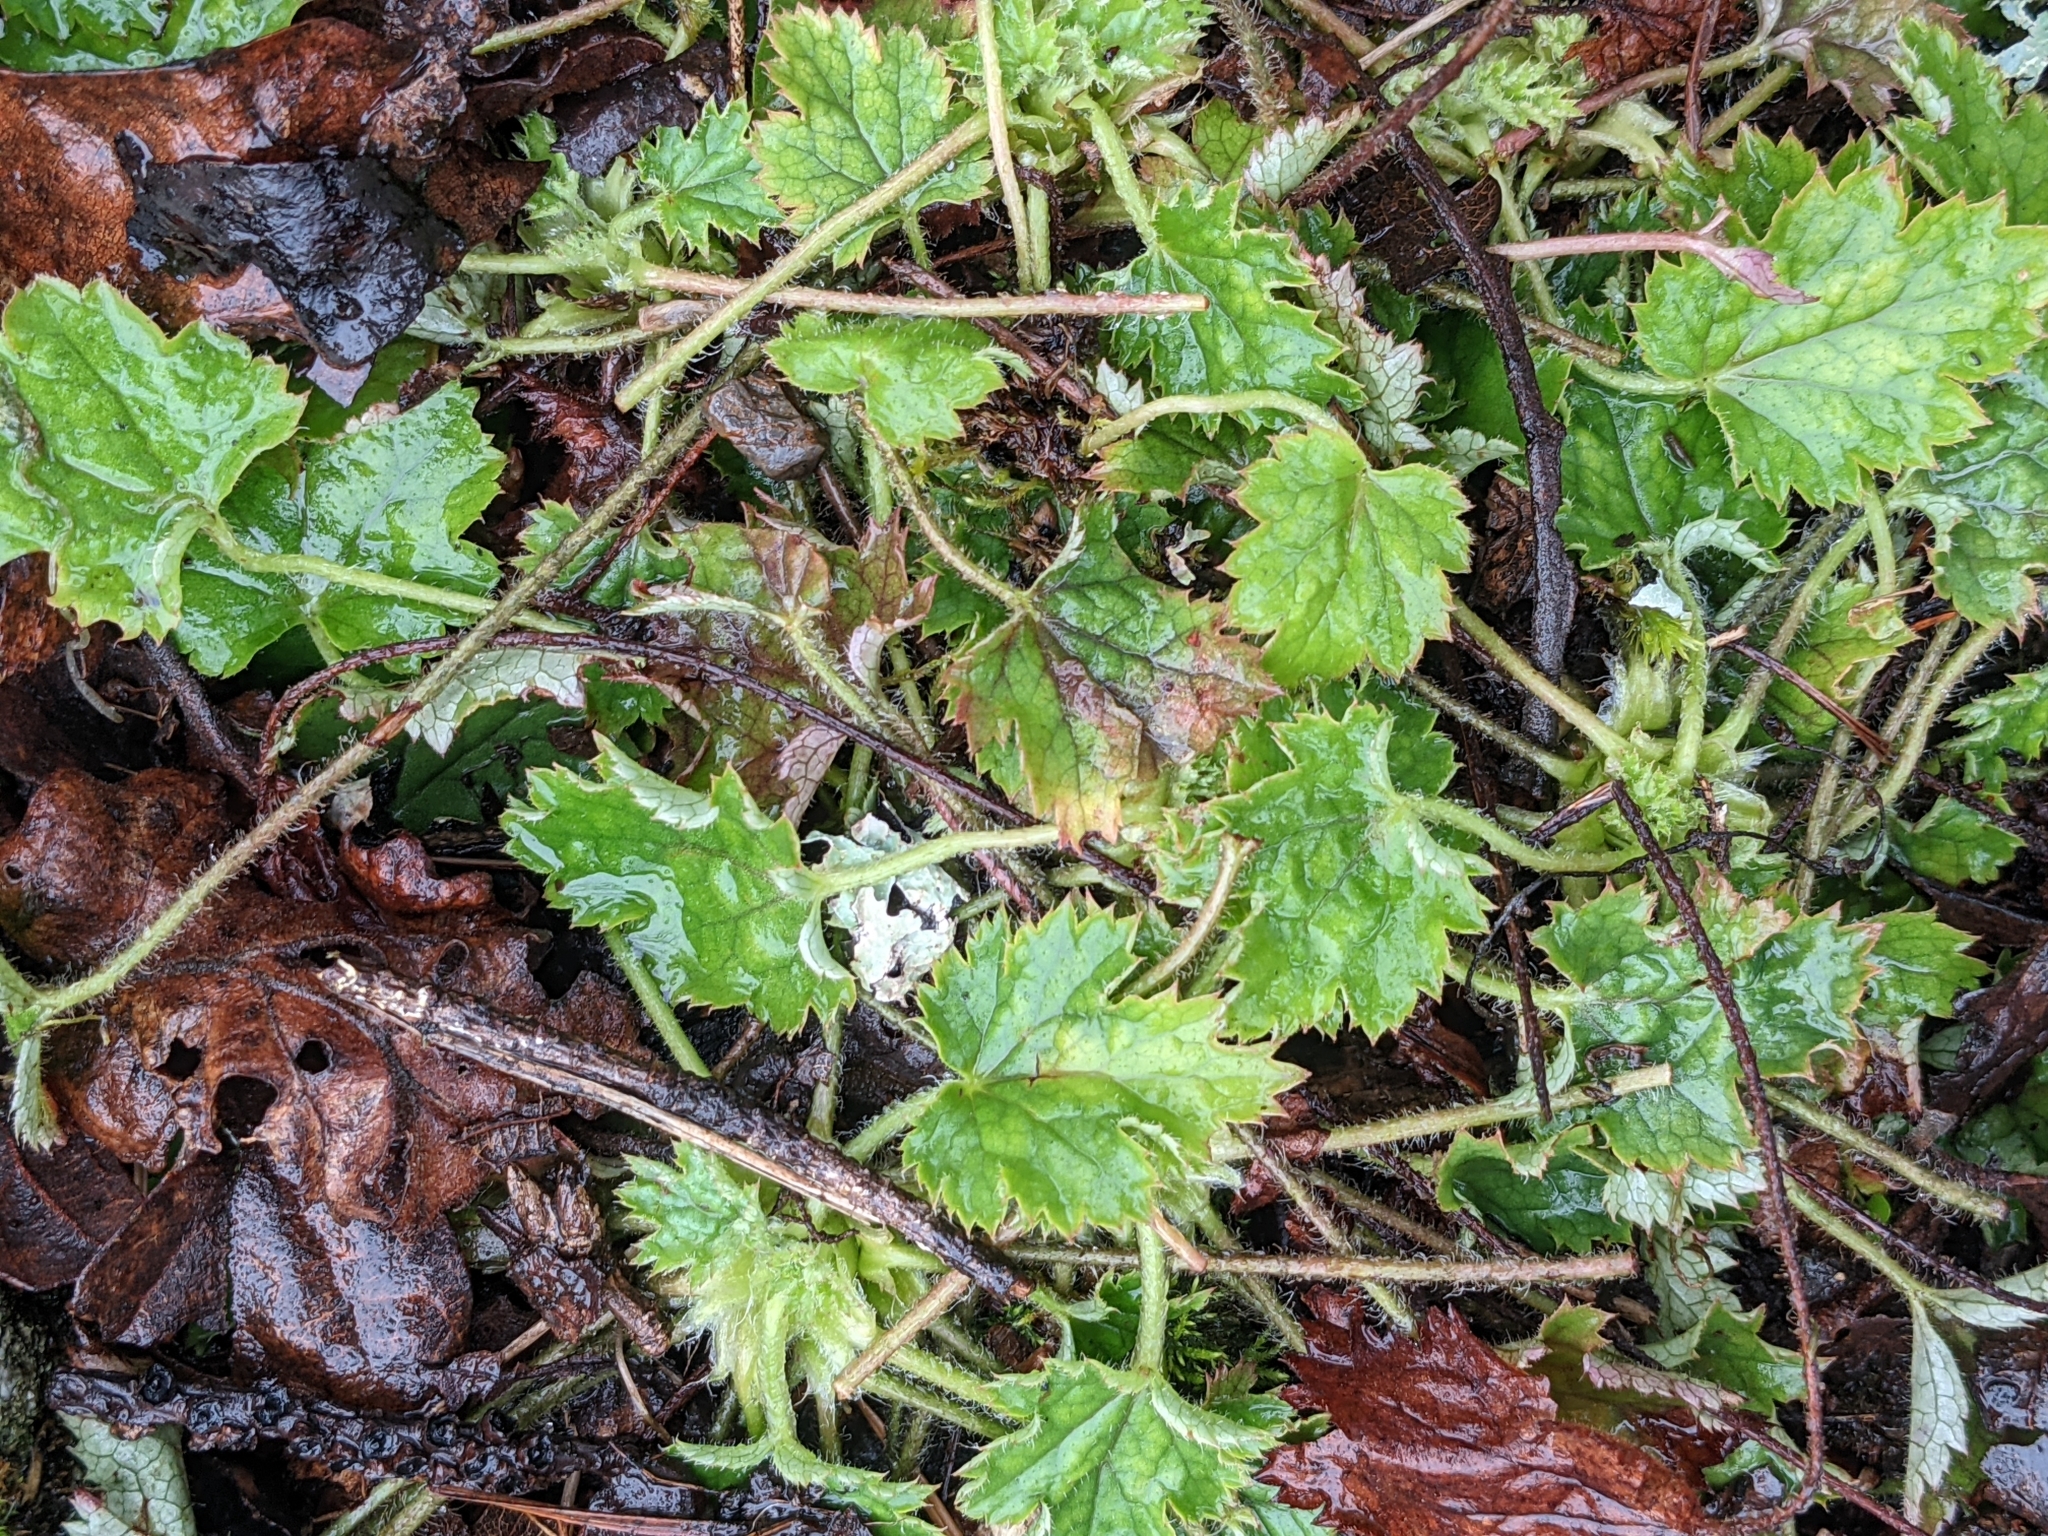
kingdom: Plantae
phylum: Tracheophyta
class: Magnoliopsida
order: Saxifragales
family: Saxifragaceae
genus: Heuchera
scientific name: Heuchera micrantha
